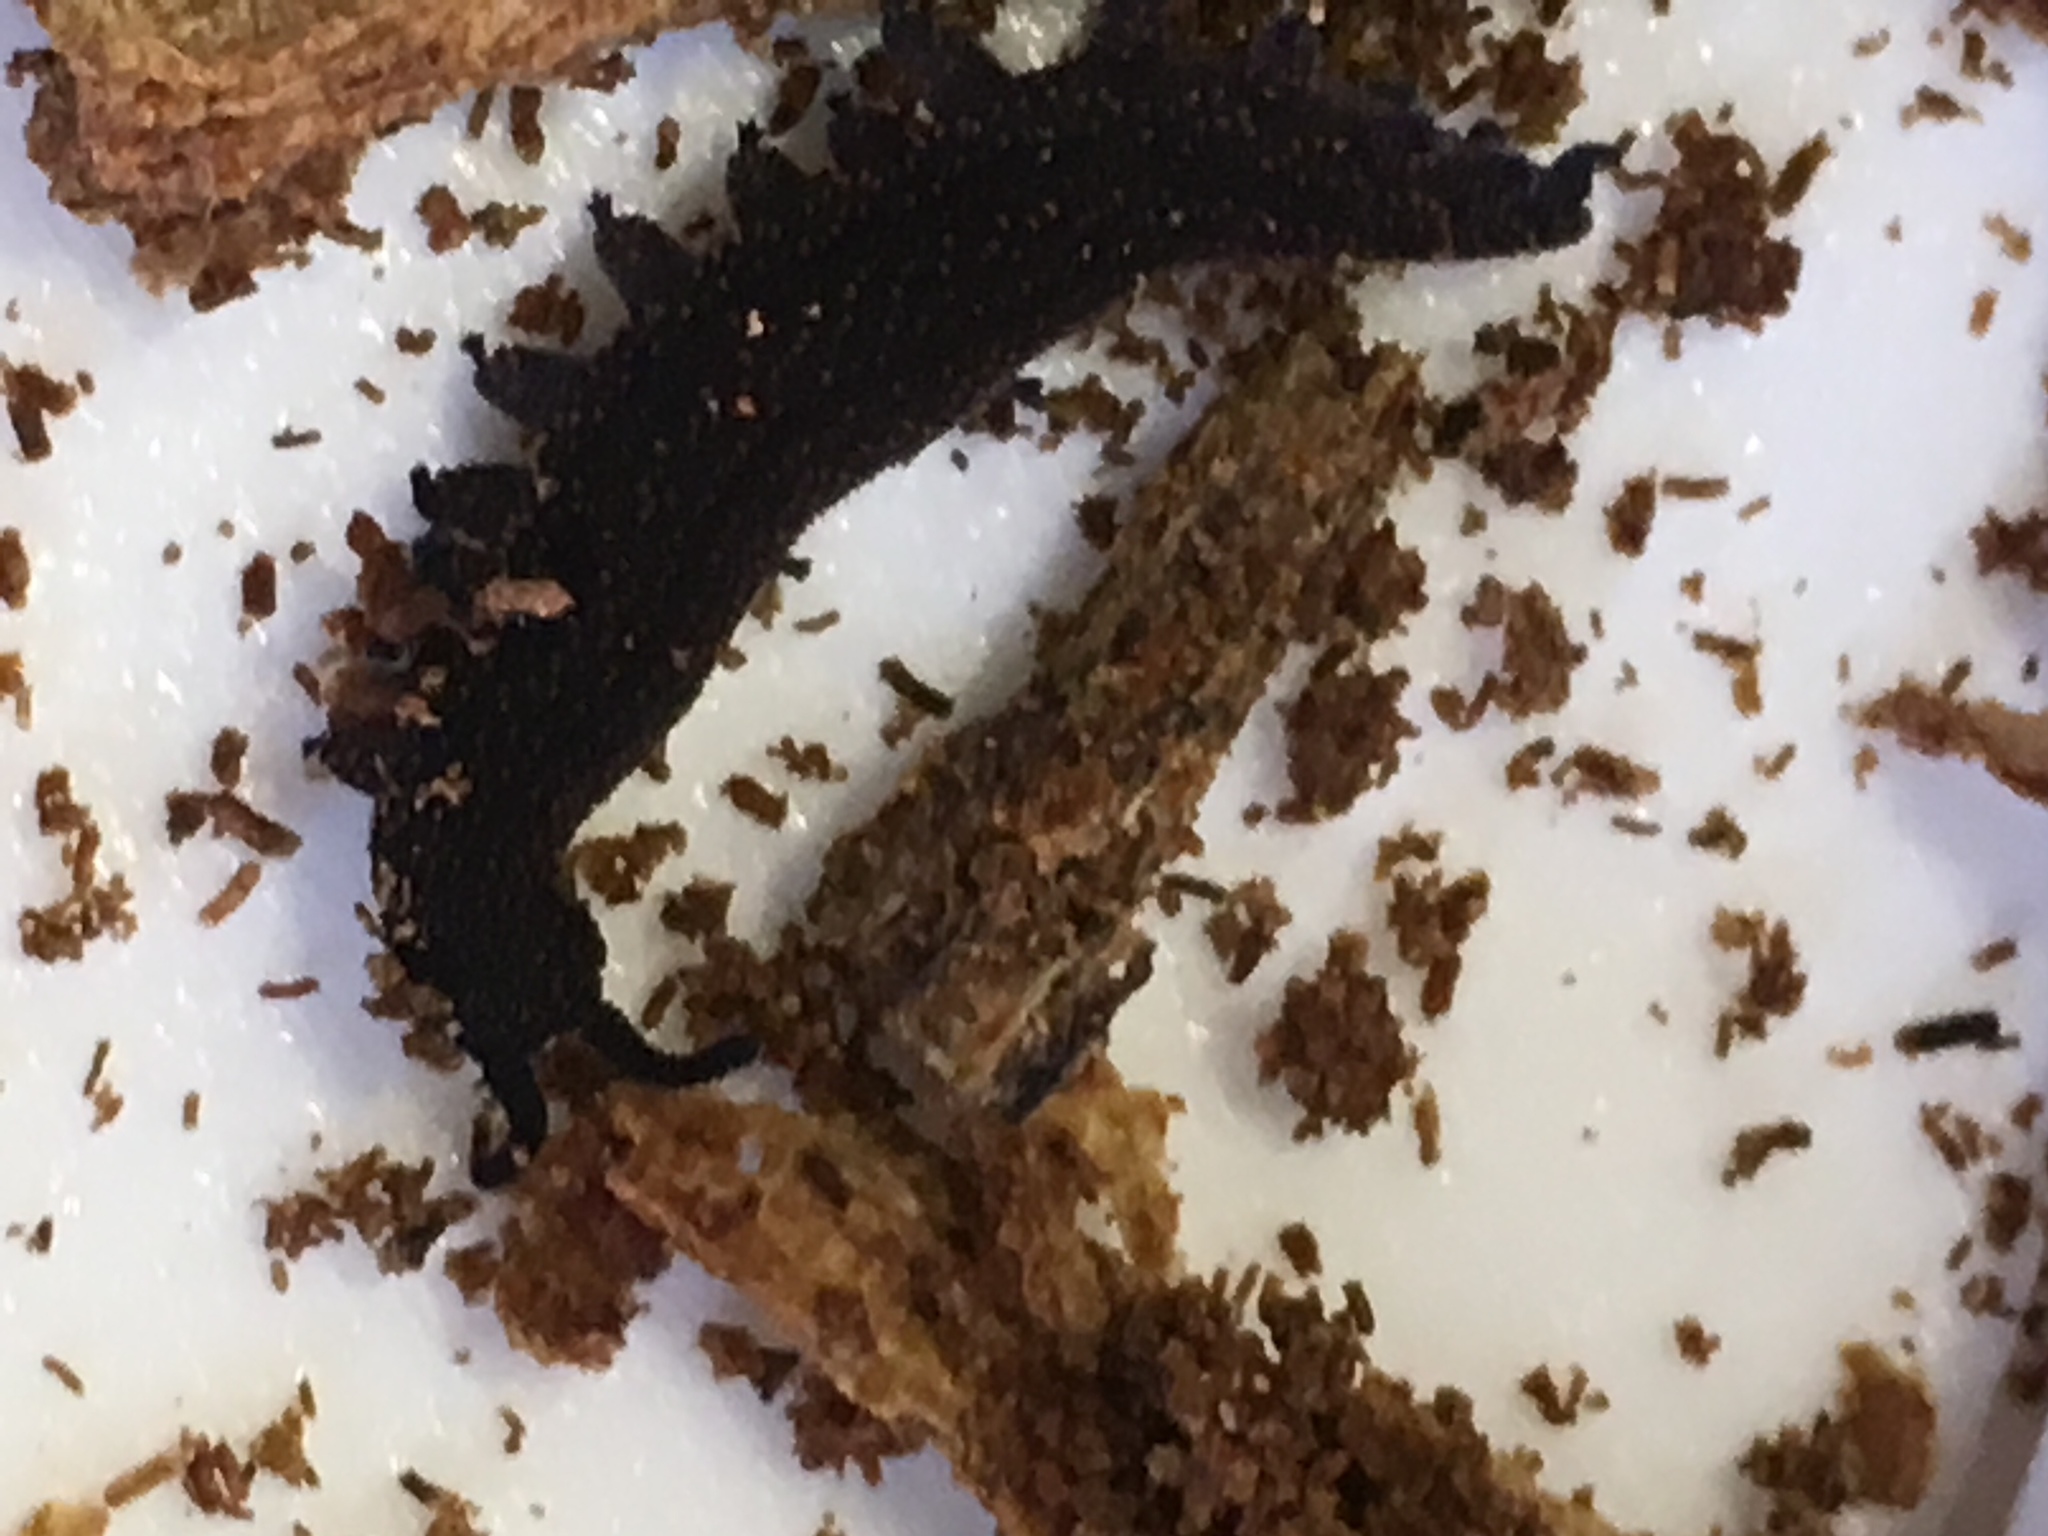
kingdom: Animalia
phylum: Onychophora
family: Peripatopsidae
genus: Peripatoides
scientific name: Peripatoides novaezealandiae
